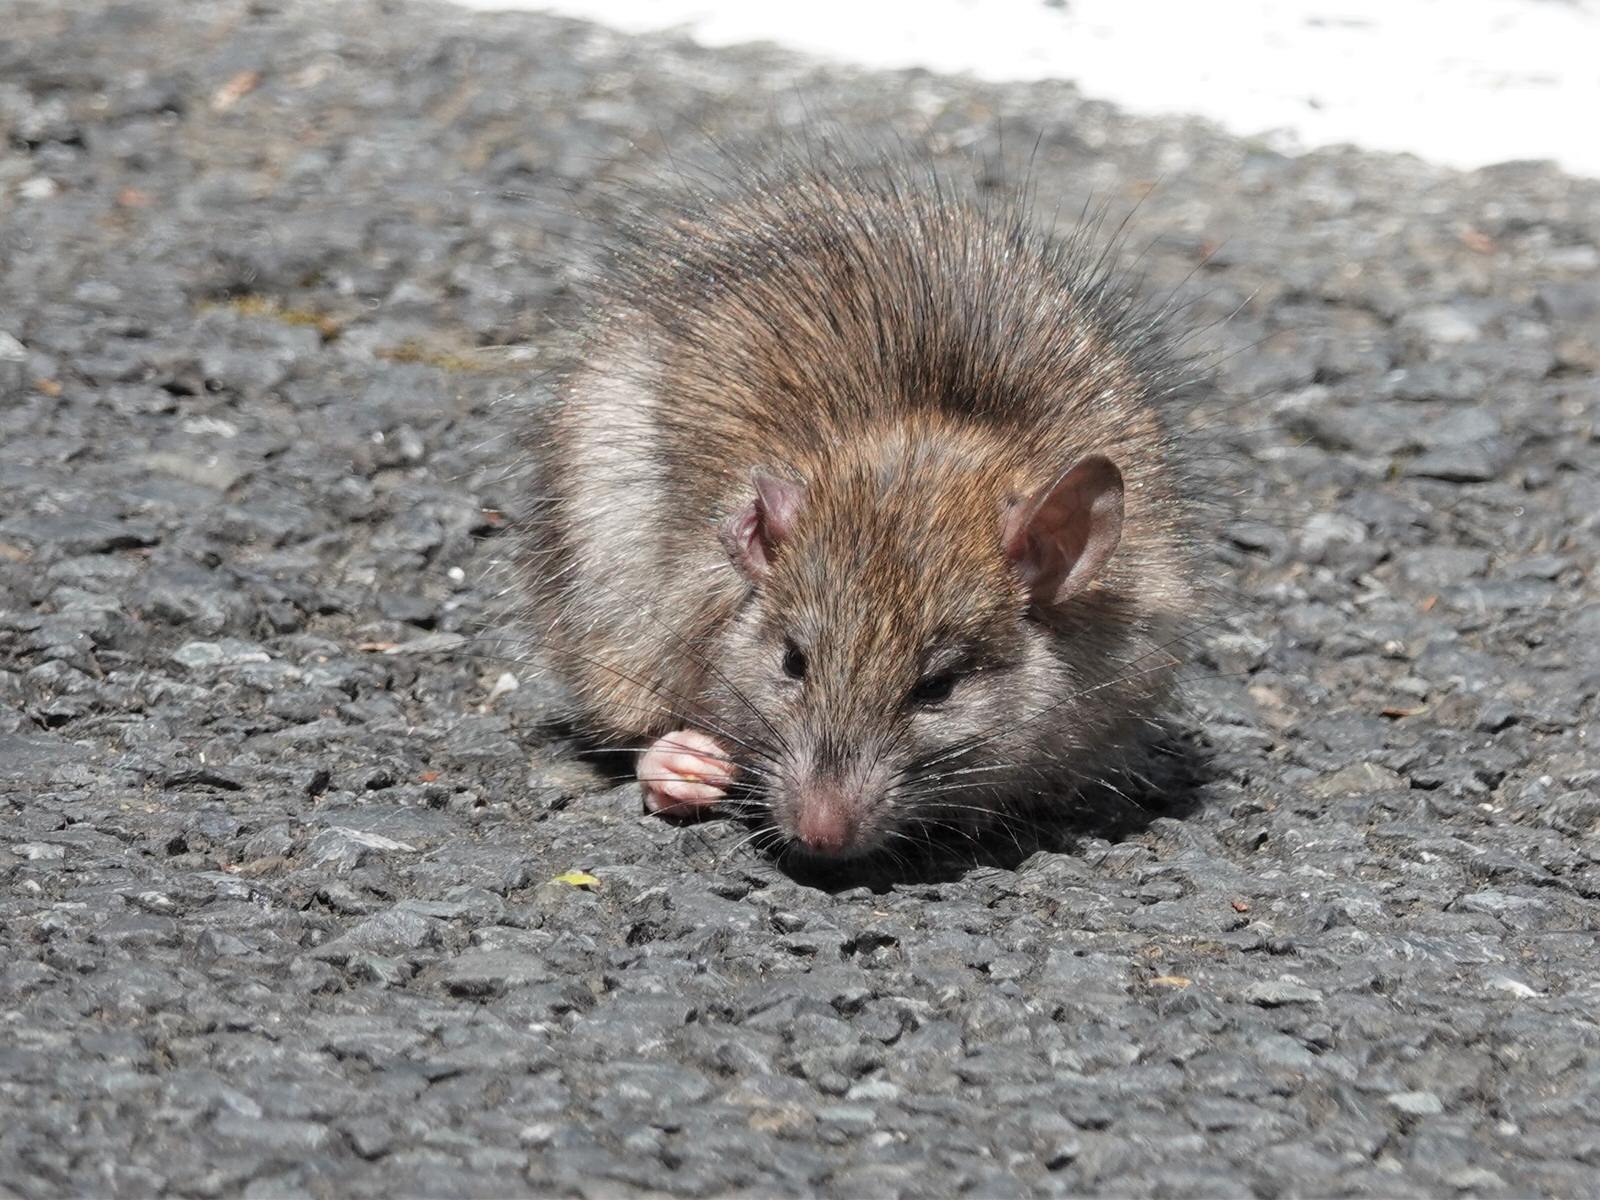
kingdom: Animalia
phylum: Chordata
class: Mammalia
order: Rodentia
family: Muridae
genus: Rattus
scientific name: Rattus rattus
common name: Black rat
